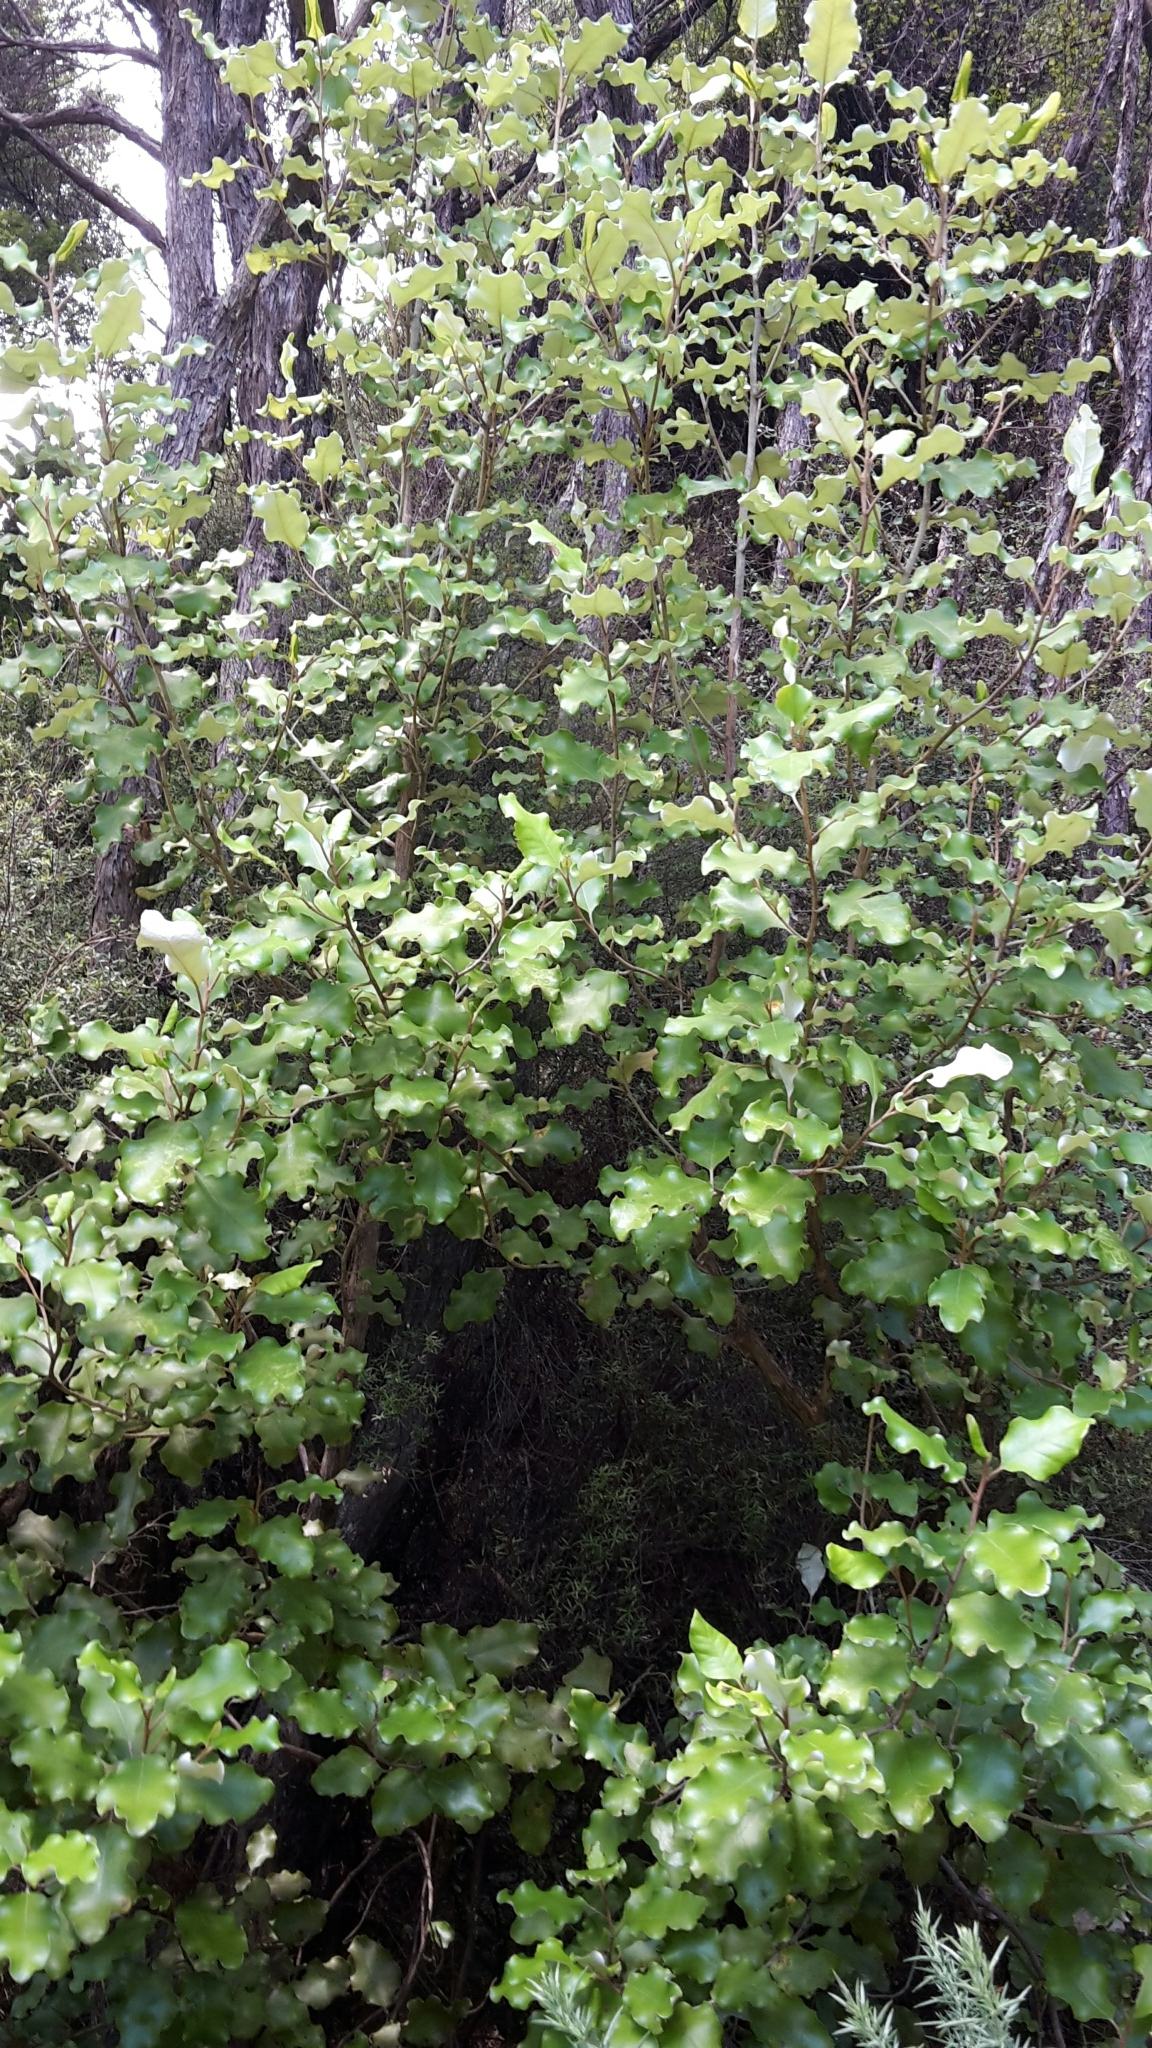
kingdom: Plantae
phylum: Tracheophyta
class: Magnoliopsida
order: Asterales
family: Asteraceae
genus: Olearia
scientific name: Olearia paniculata
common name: Akiraho
